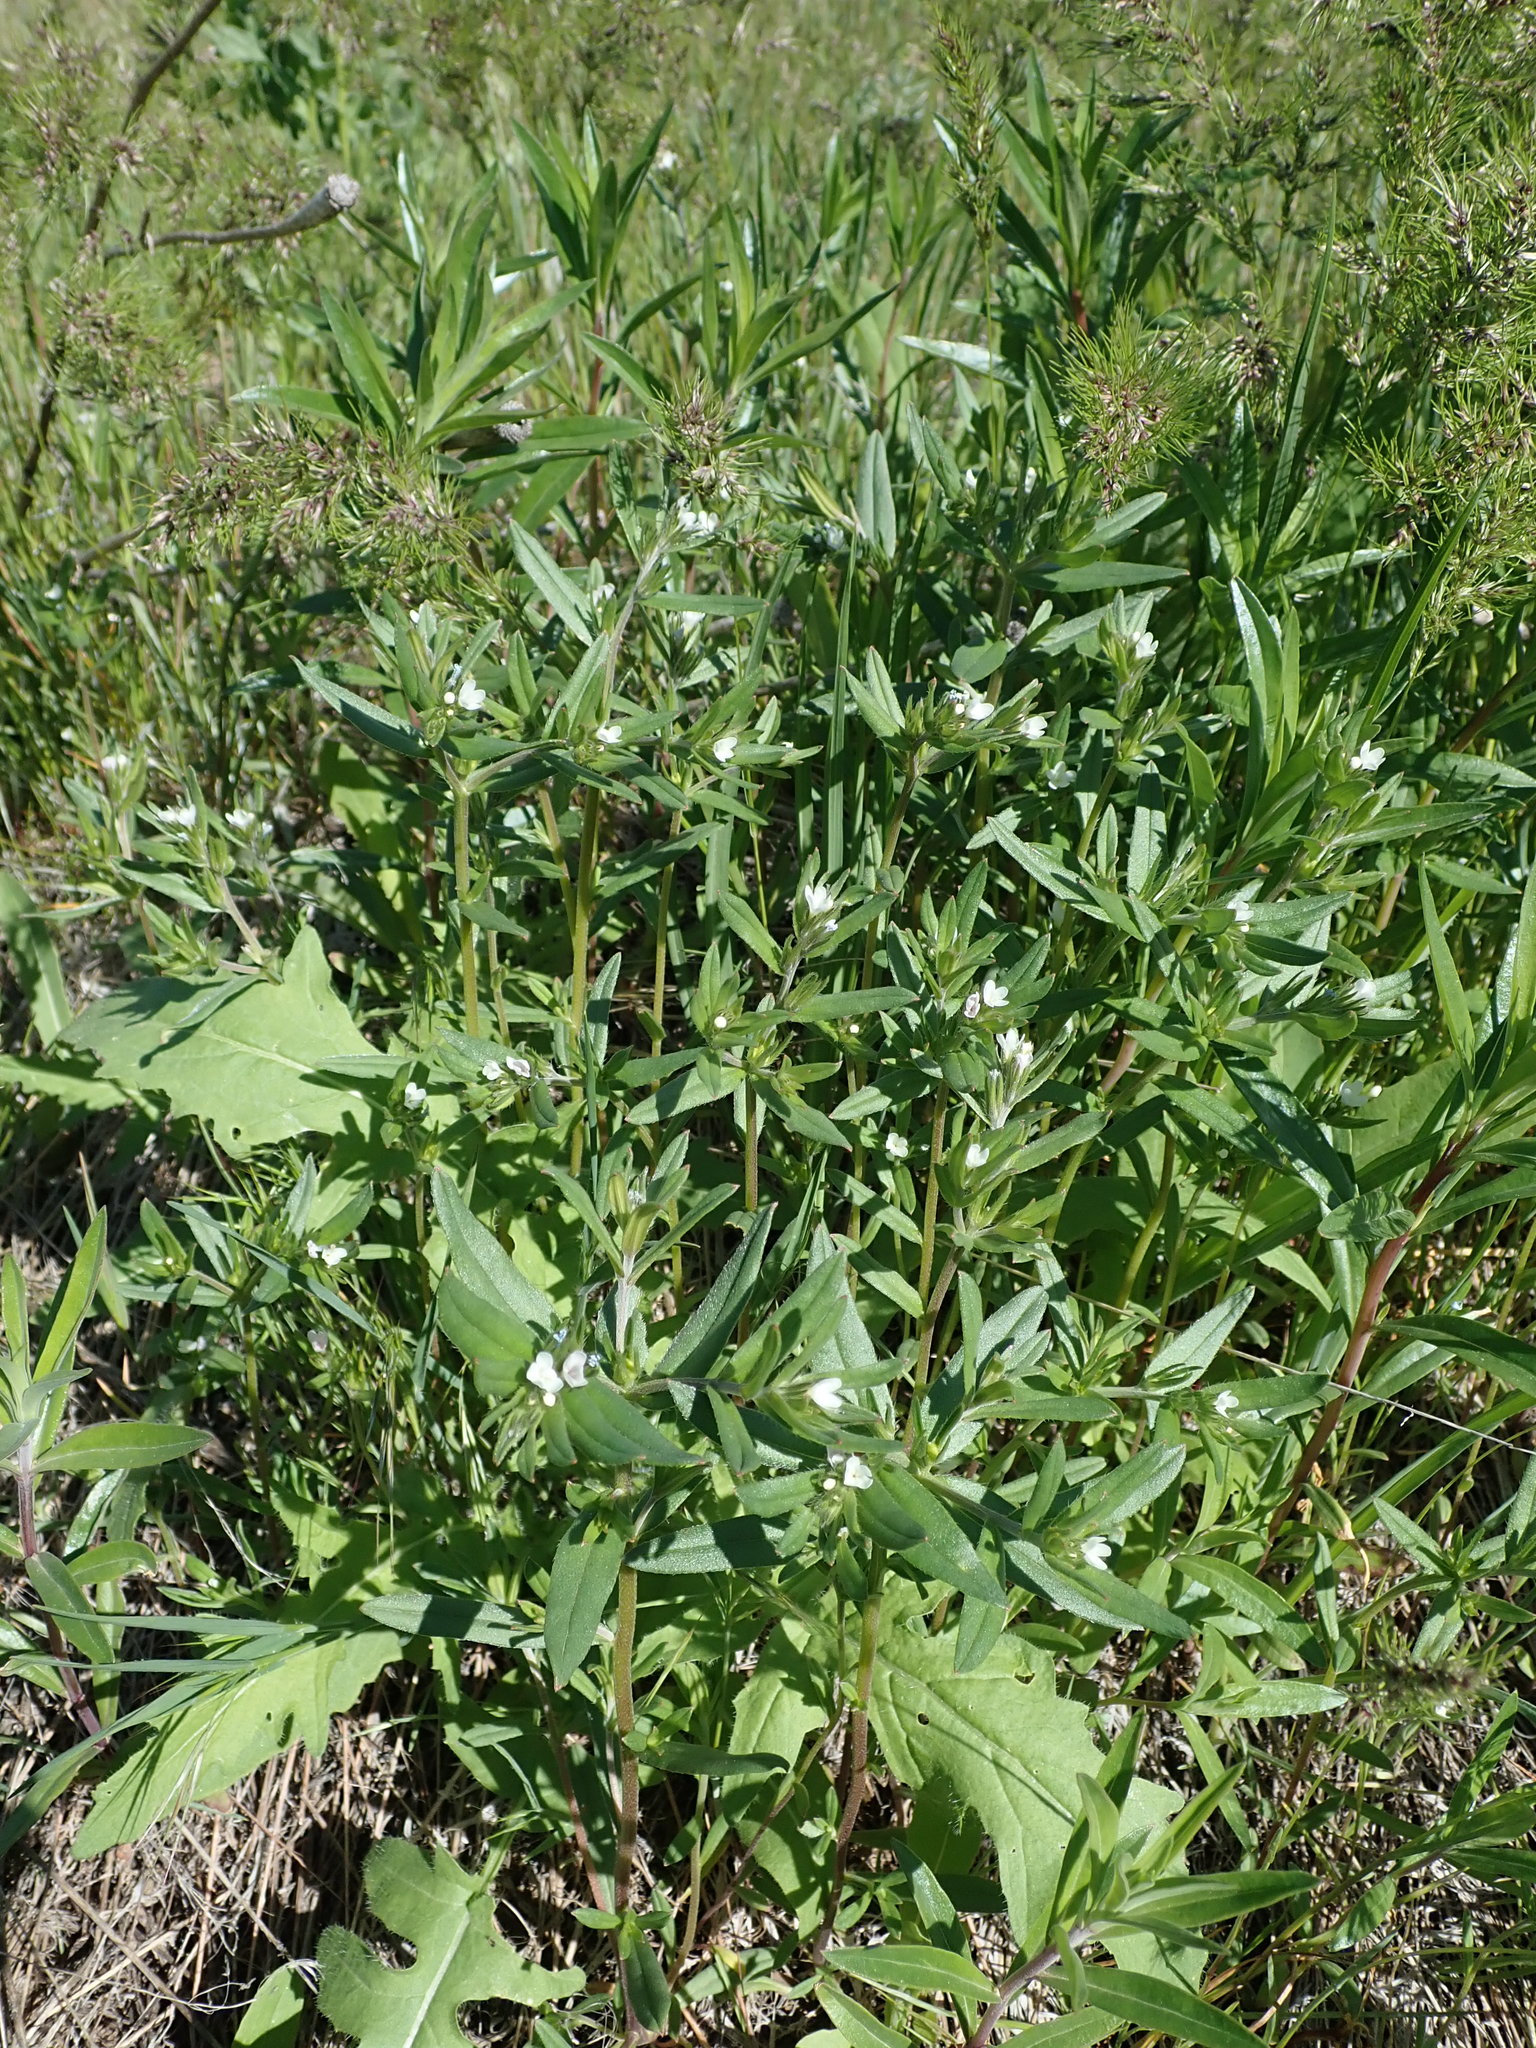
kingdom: Plantae
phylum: Tracheophyta
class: Magnoliopsida
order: Boraginales
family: Boraginaceae
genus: Buglossoides
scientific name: Buglossoides arvensis
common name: Corn gromwell
